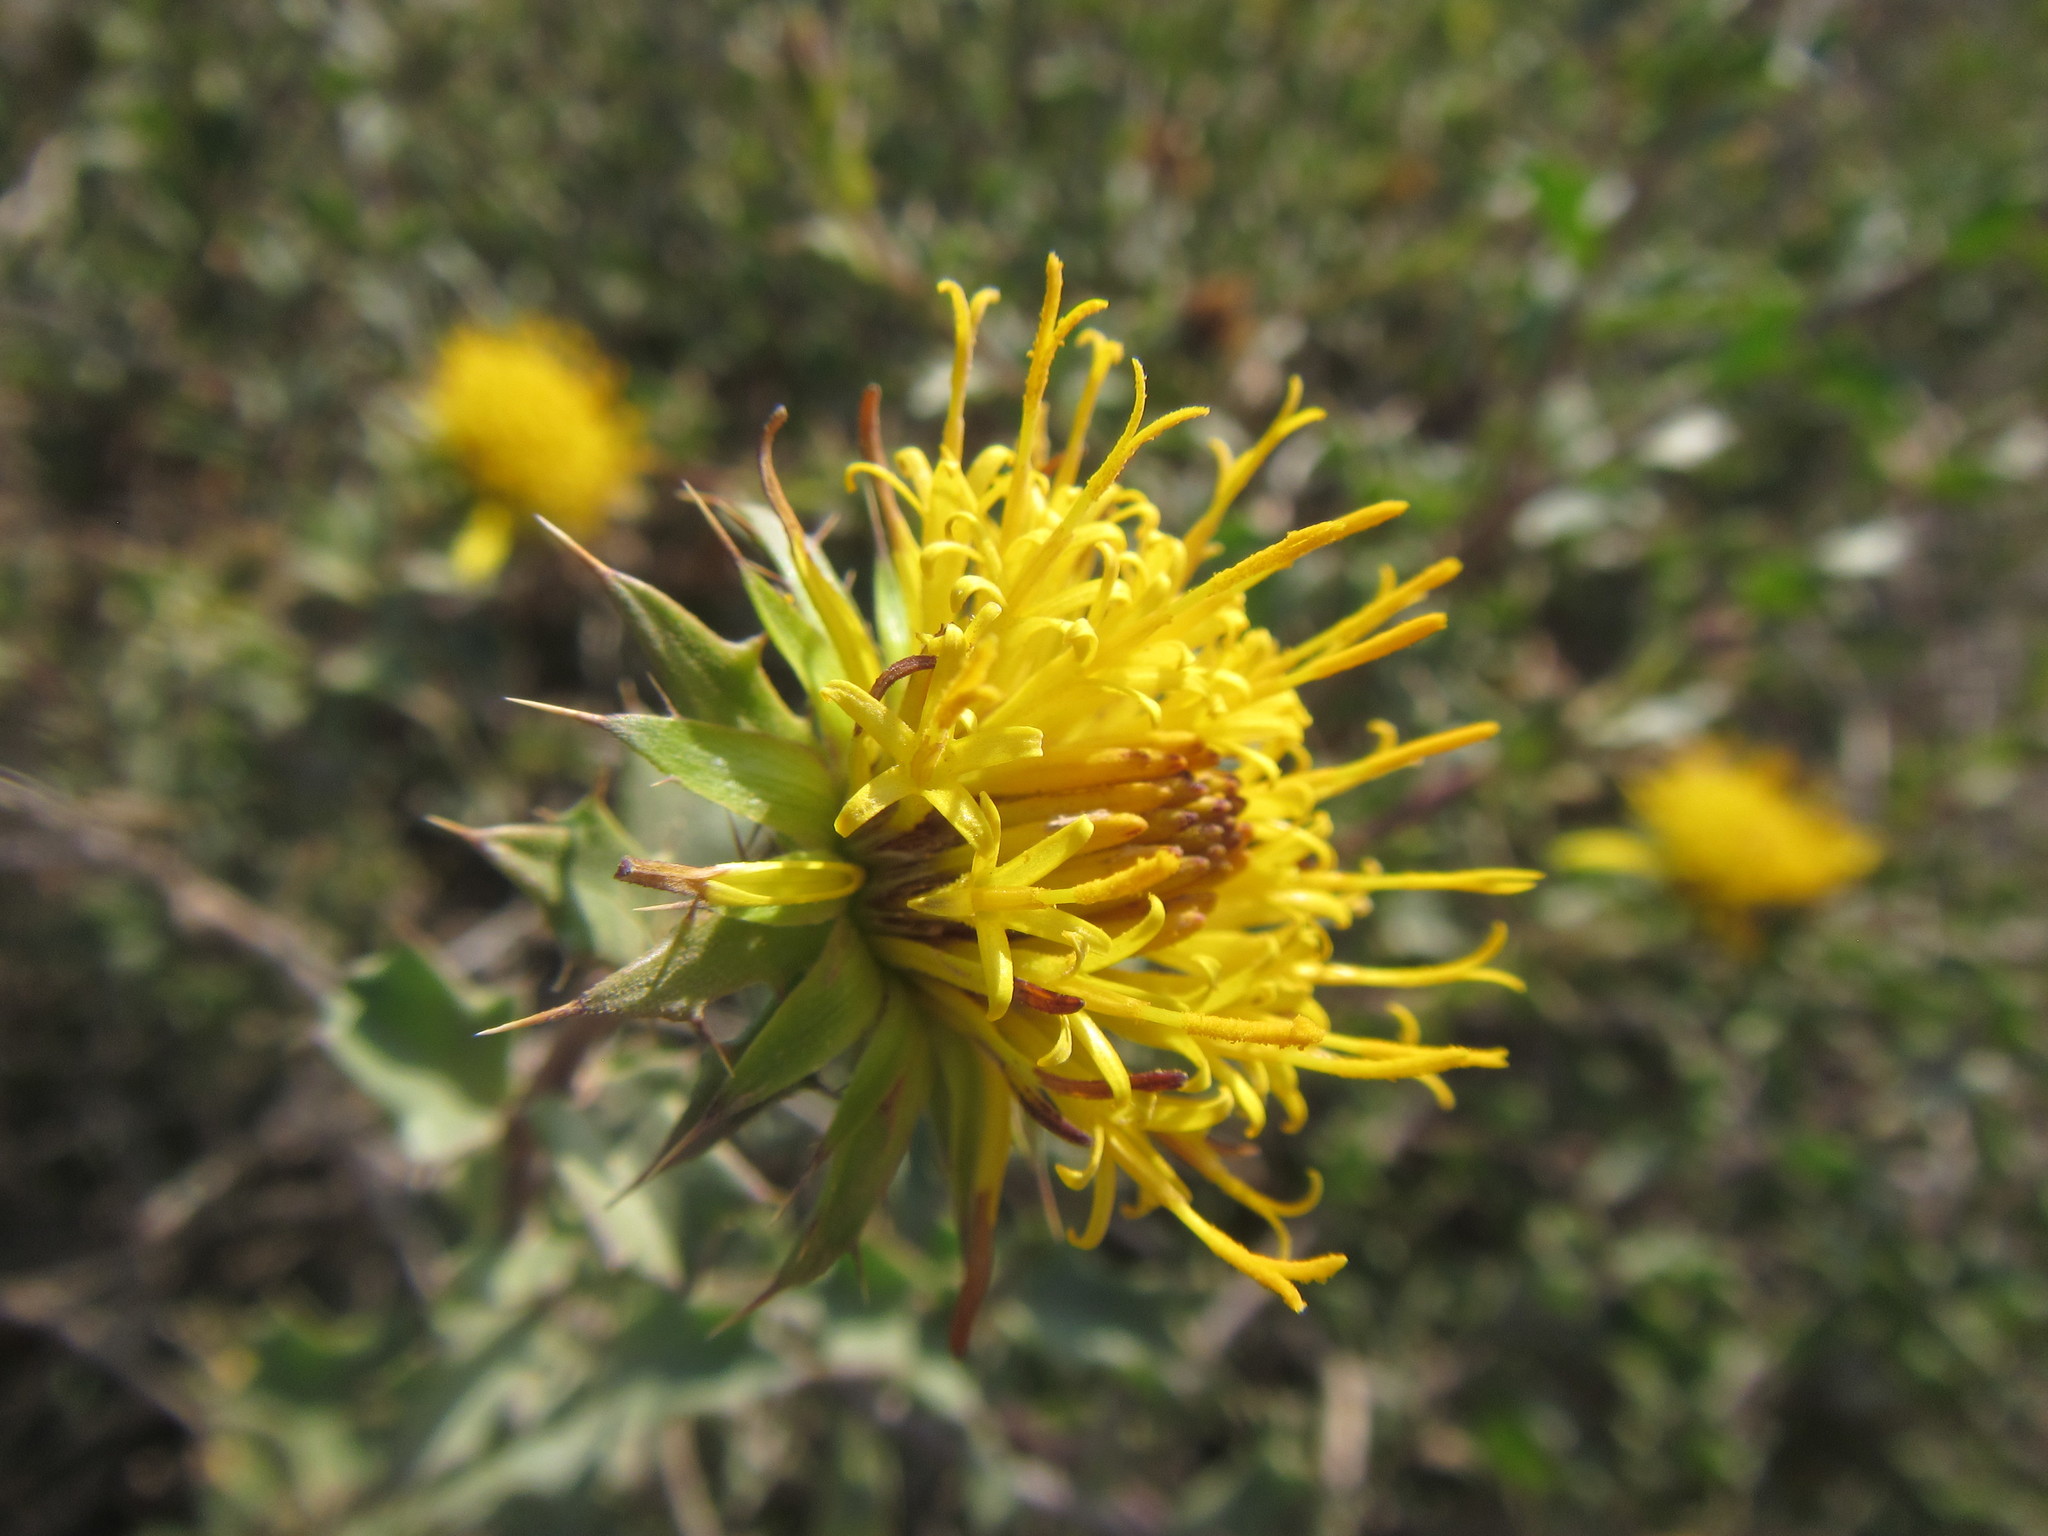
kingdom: Plantae
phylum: Tracheophyta
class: Magnoliopsida
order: Asterales
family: Asteraceae
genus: Berkheya
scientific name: Berkheya spinosa
